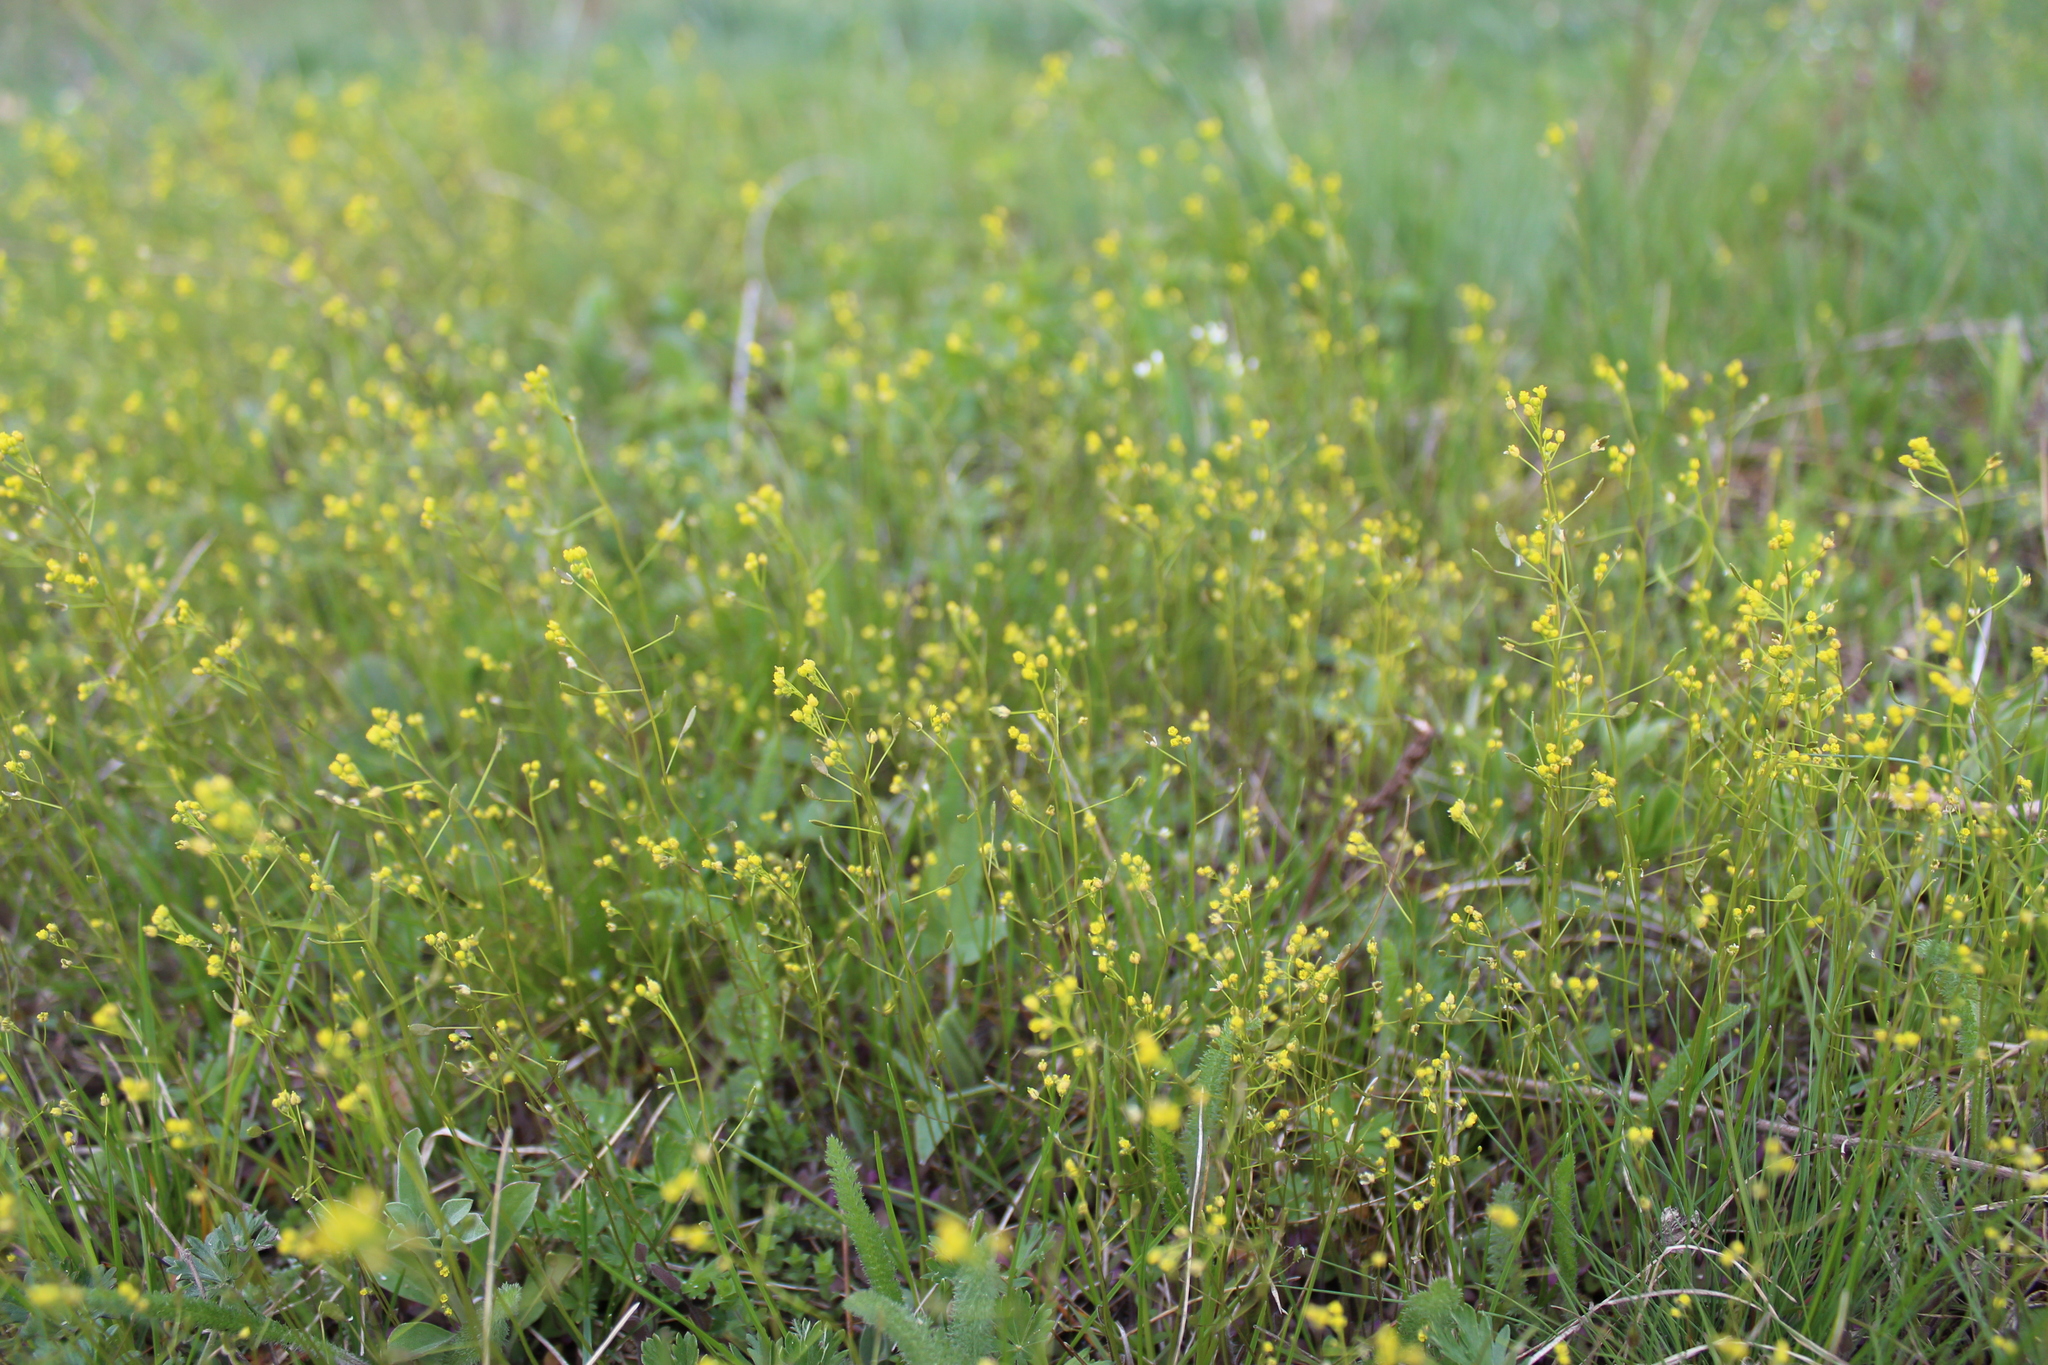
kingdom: Plantae
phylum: Tracheophyta
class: Magnoliopsida
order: Brassicales
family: Brassicaceae
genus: Draba
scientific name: Draba nemorosa
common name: Wood whitlow-grass
